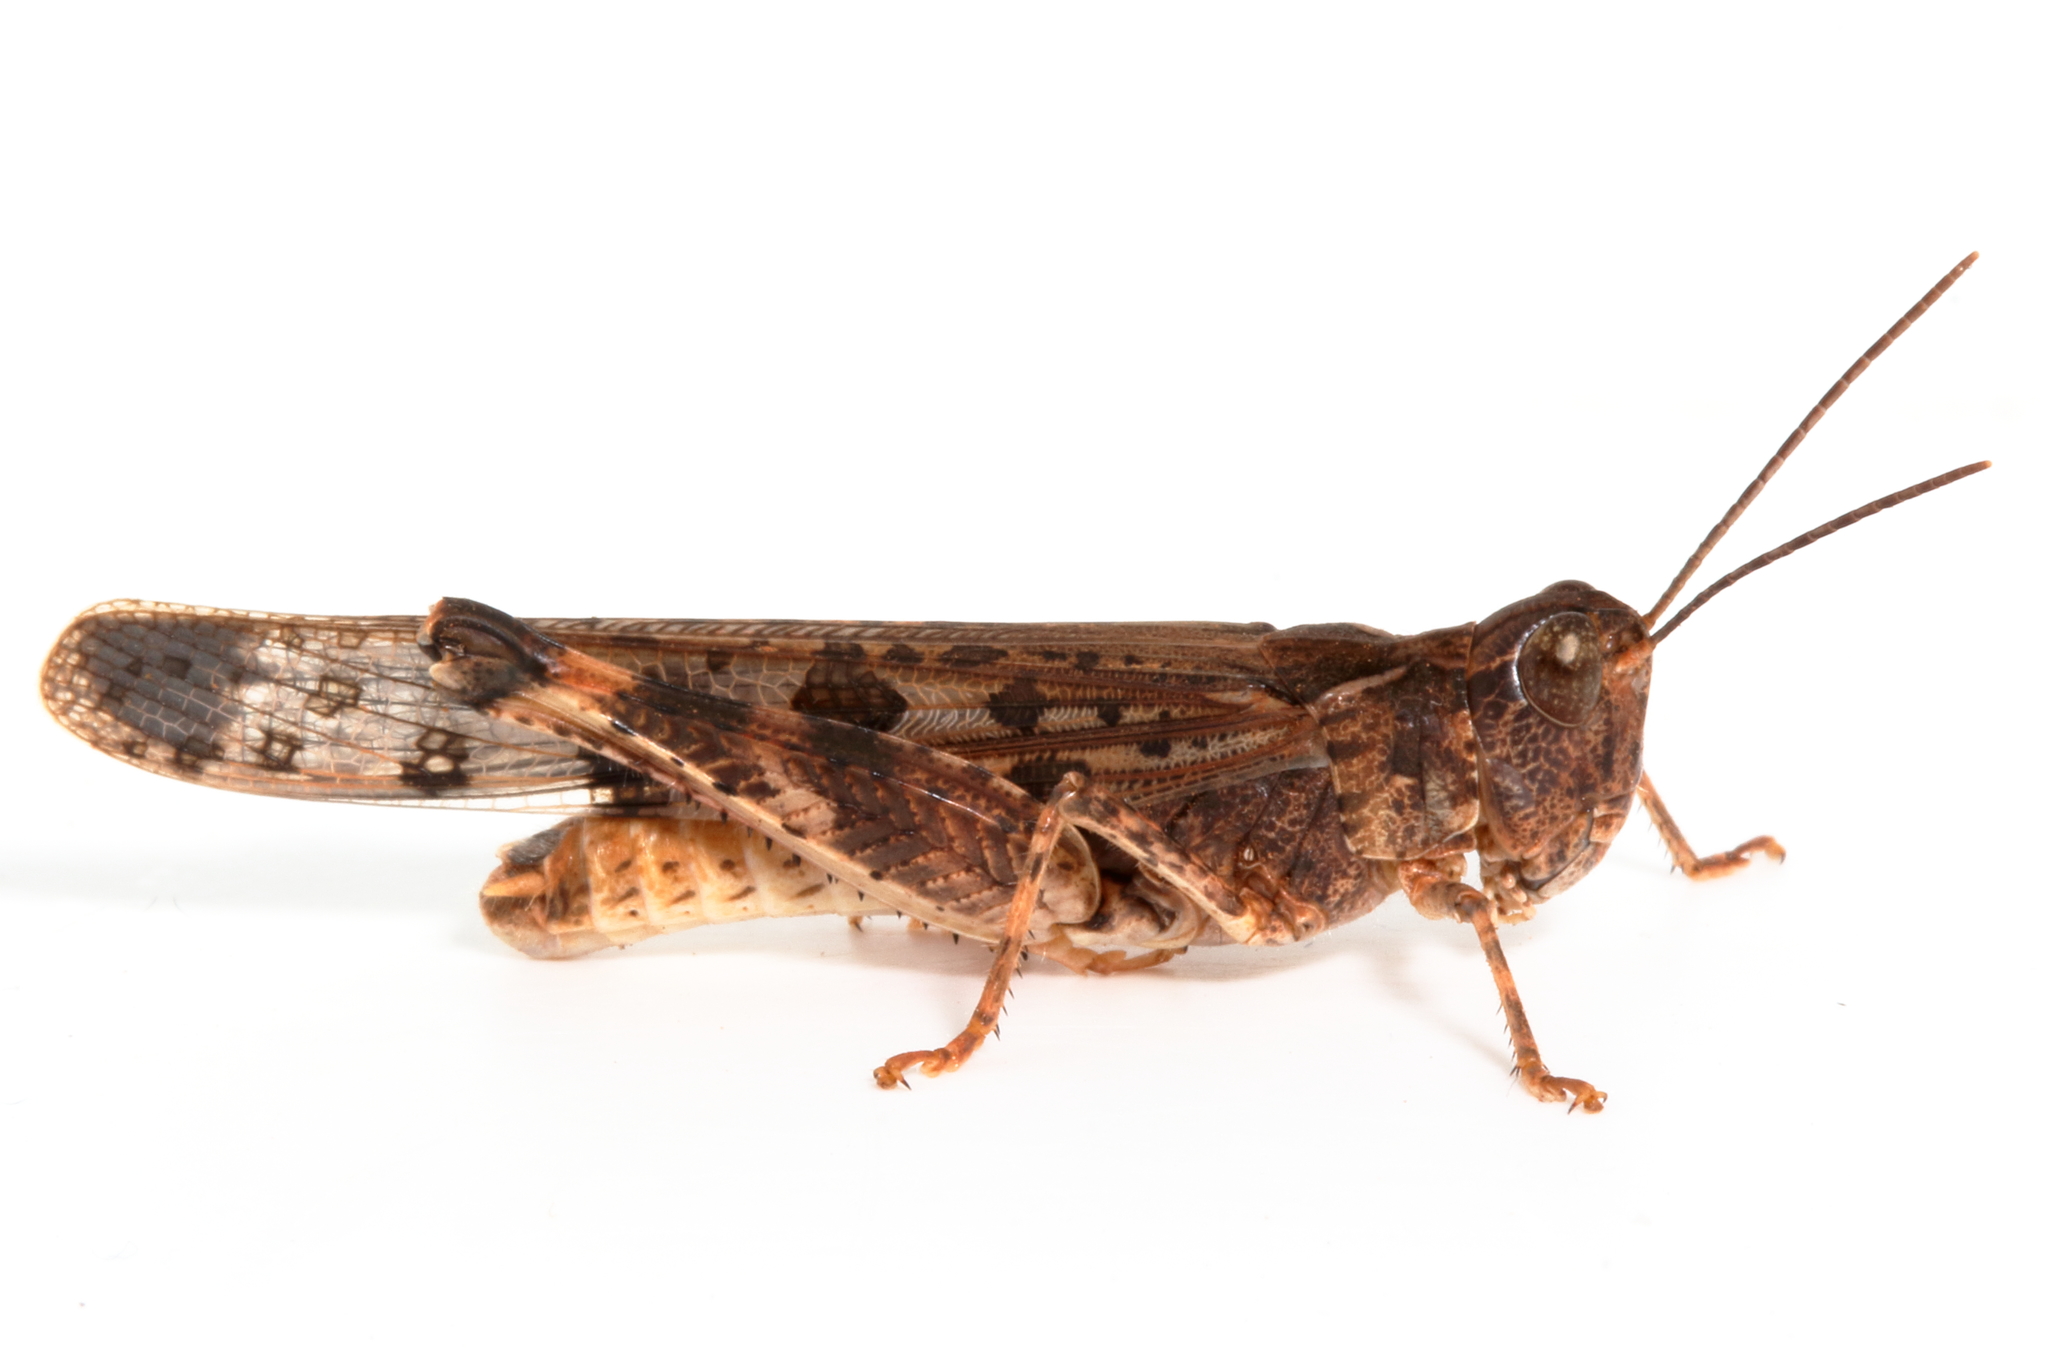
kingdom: Animalia
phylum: Arthropoda
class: Insecta
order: Orthoptera
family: Acrididae
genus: Chortoicetes
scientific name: Chortoicetes terminifera
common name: Australian plague locust
